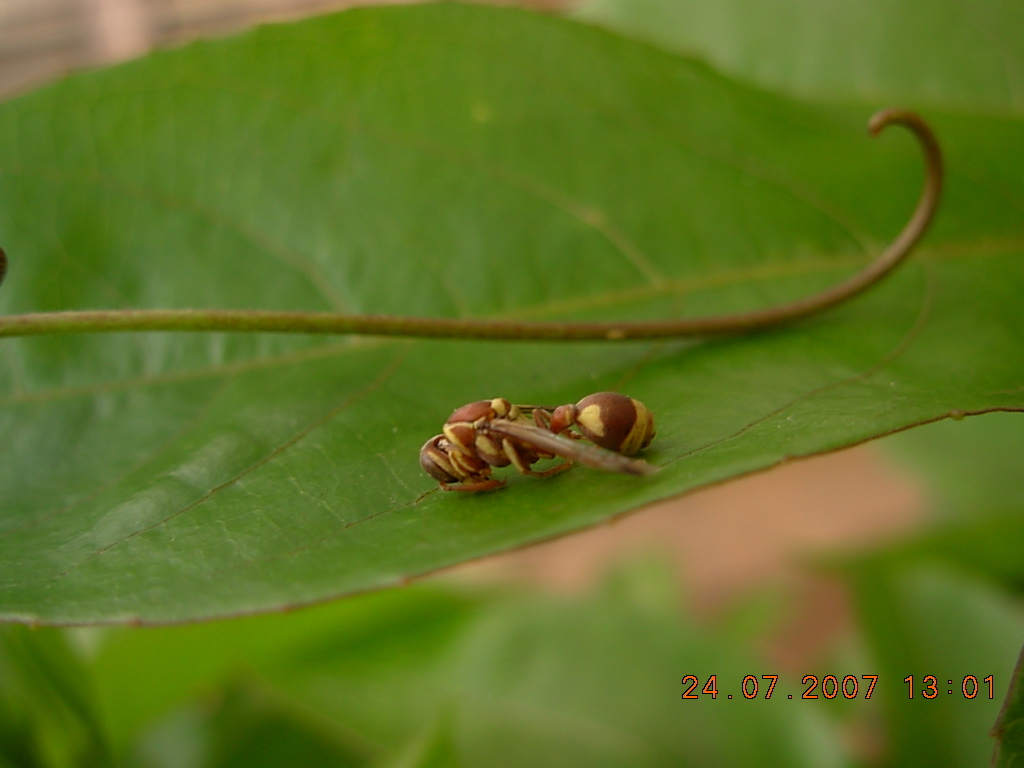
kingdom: Animalia
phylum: Arthropoda
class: Insecta
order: Hymenoptera
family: Vespidae
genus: Ropalidia
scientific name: Ropalidia variegata
